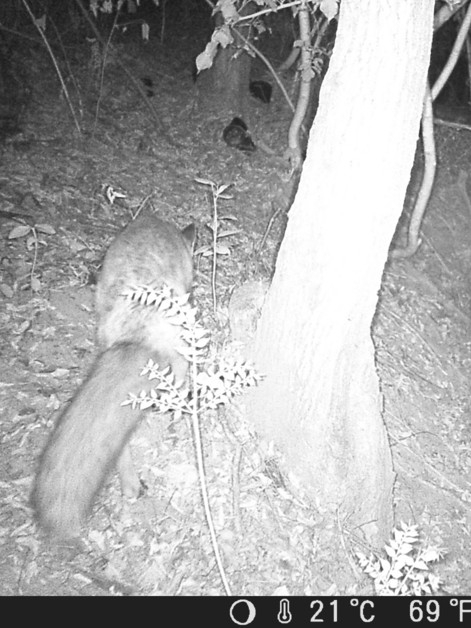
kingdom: Animalia
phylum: Chordata
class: Mammalia
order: Carnivora
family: Canidae
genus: Vulpes
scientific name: Vulpes vulpes
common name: Red fox
